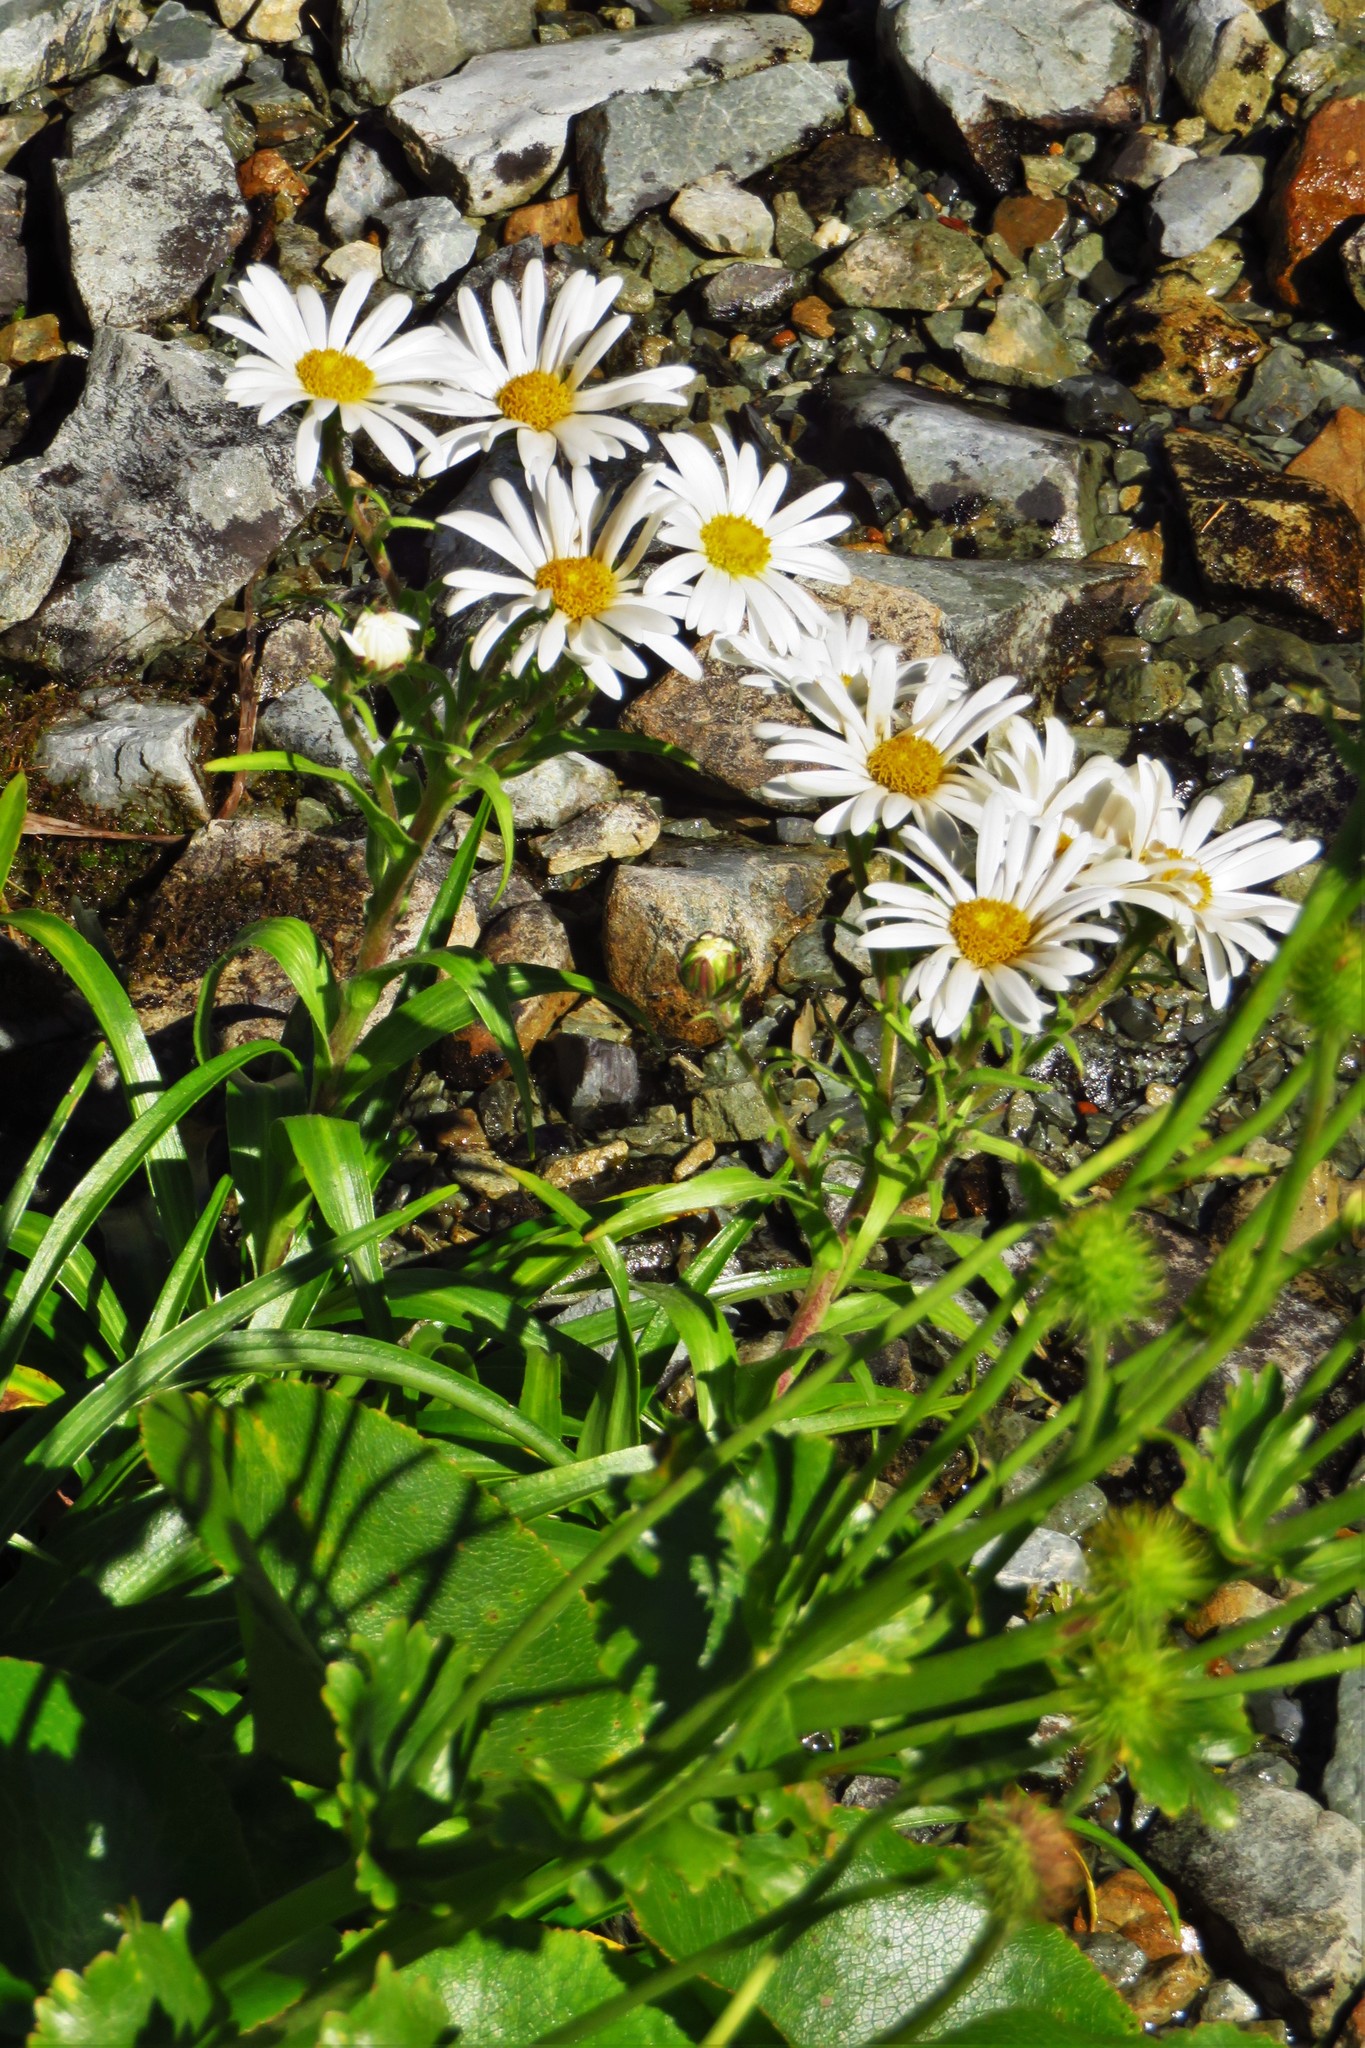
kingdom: Plantae
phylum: Tracheophyta
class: Magnoliopsida
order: Asterales
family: Asteraceae
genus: Dolichoglottis
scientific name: Dolichoglottis scorzoneroides
